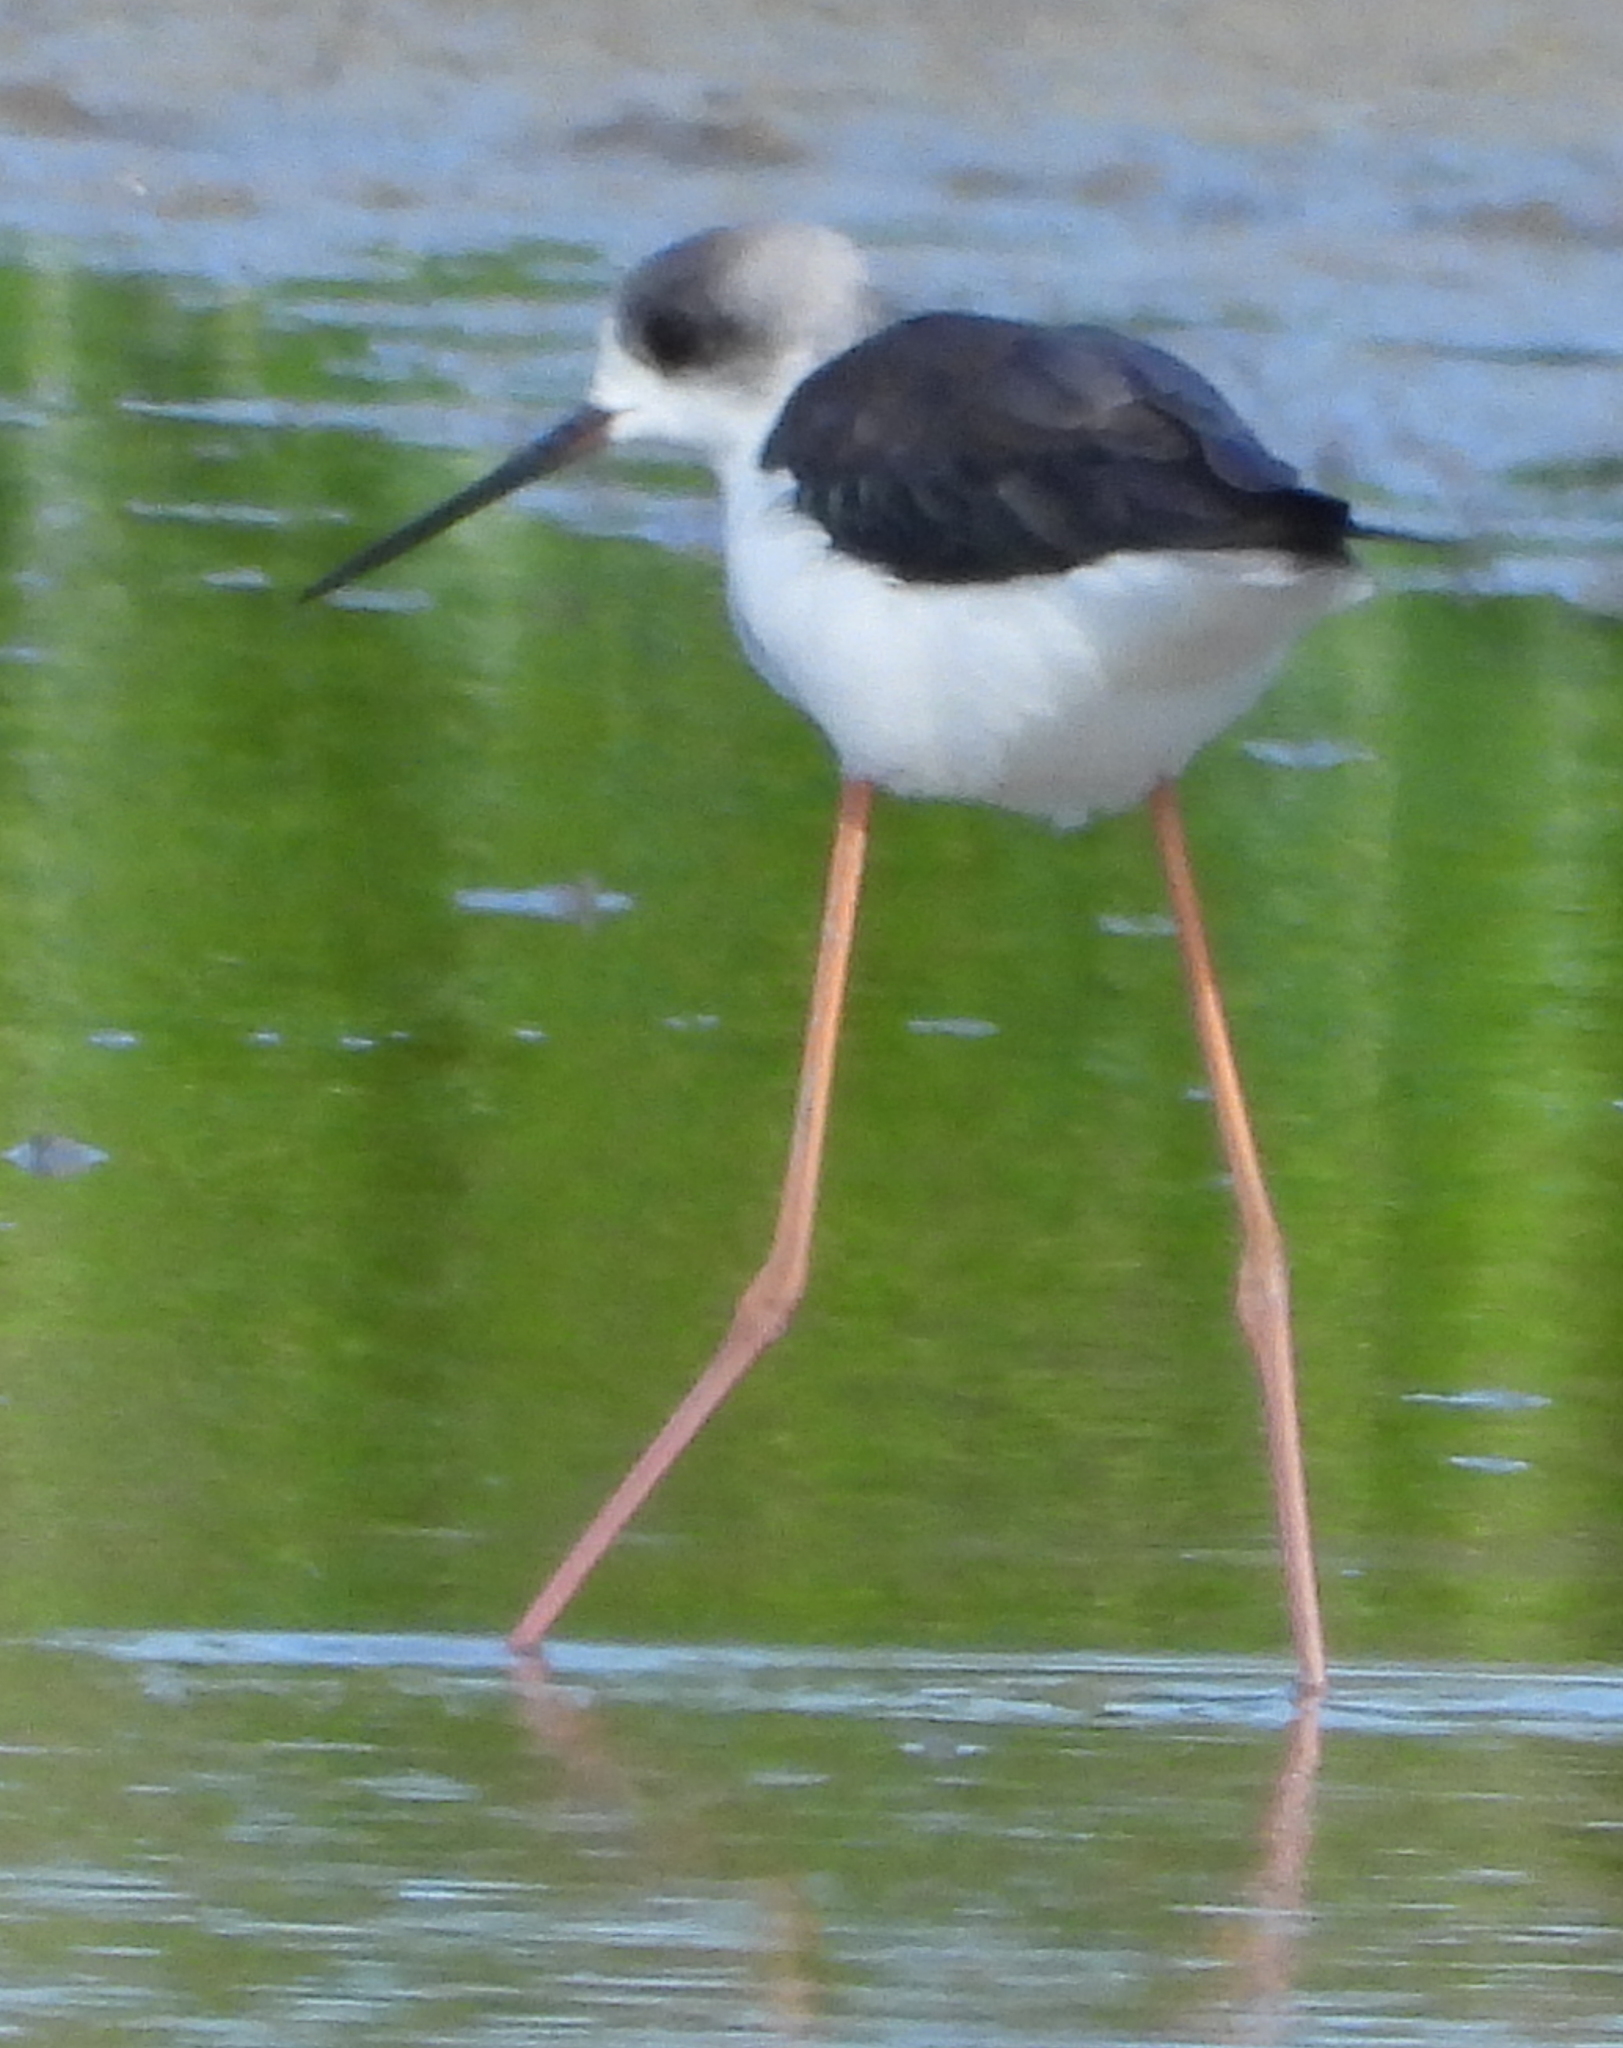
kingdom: Animalia
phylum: Chordata
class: Aves
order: Charadriiformes
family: Recurvirostridae
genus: Himantopus
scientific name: Himantopus himantopus
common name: Black-winged stilt
